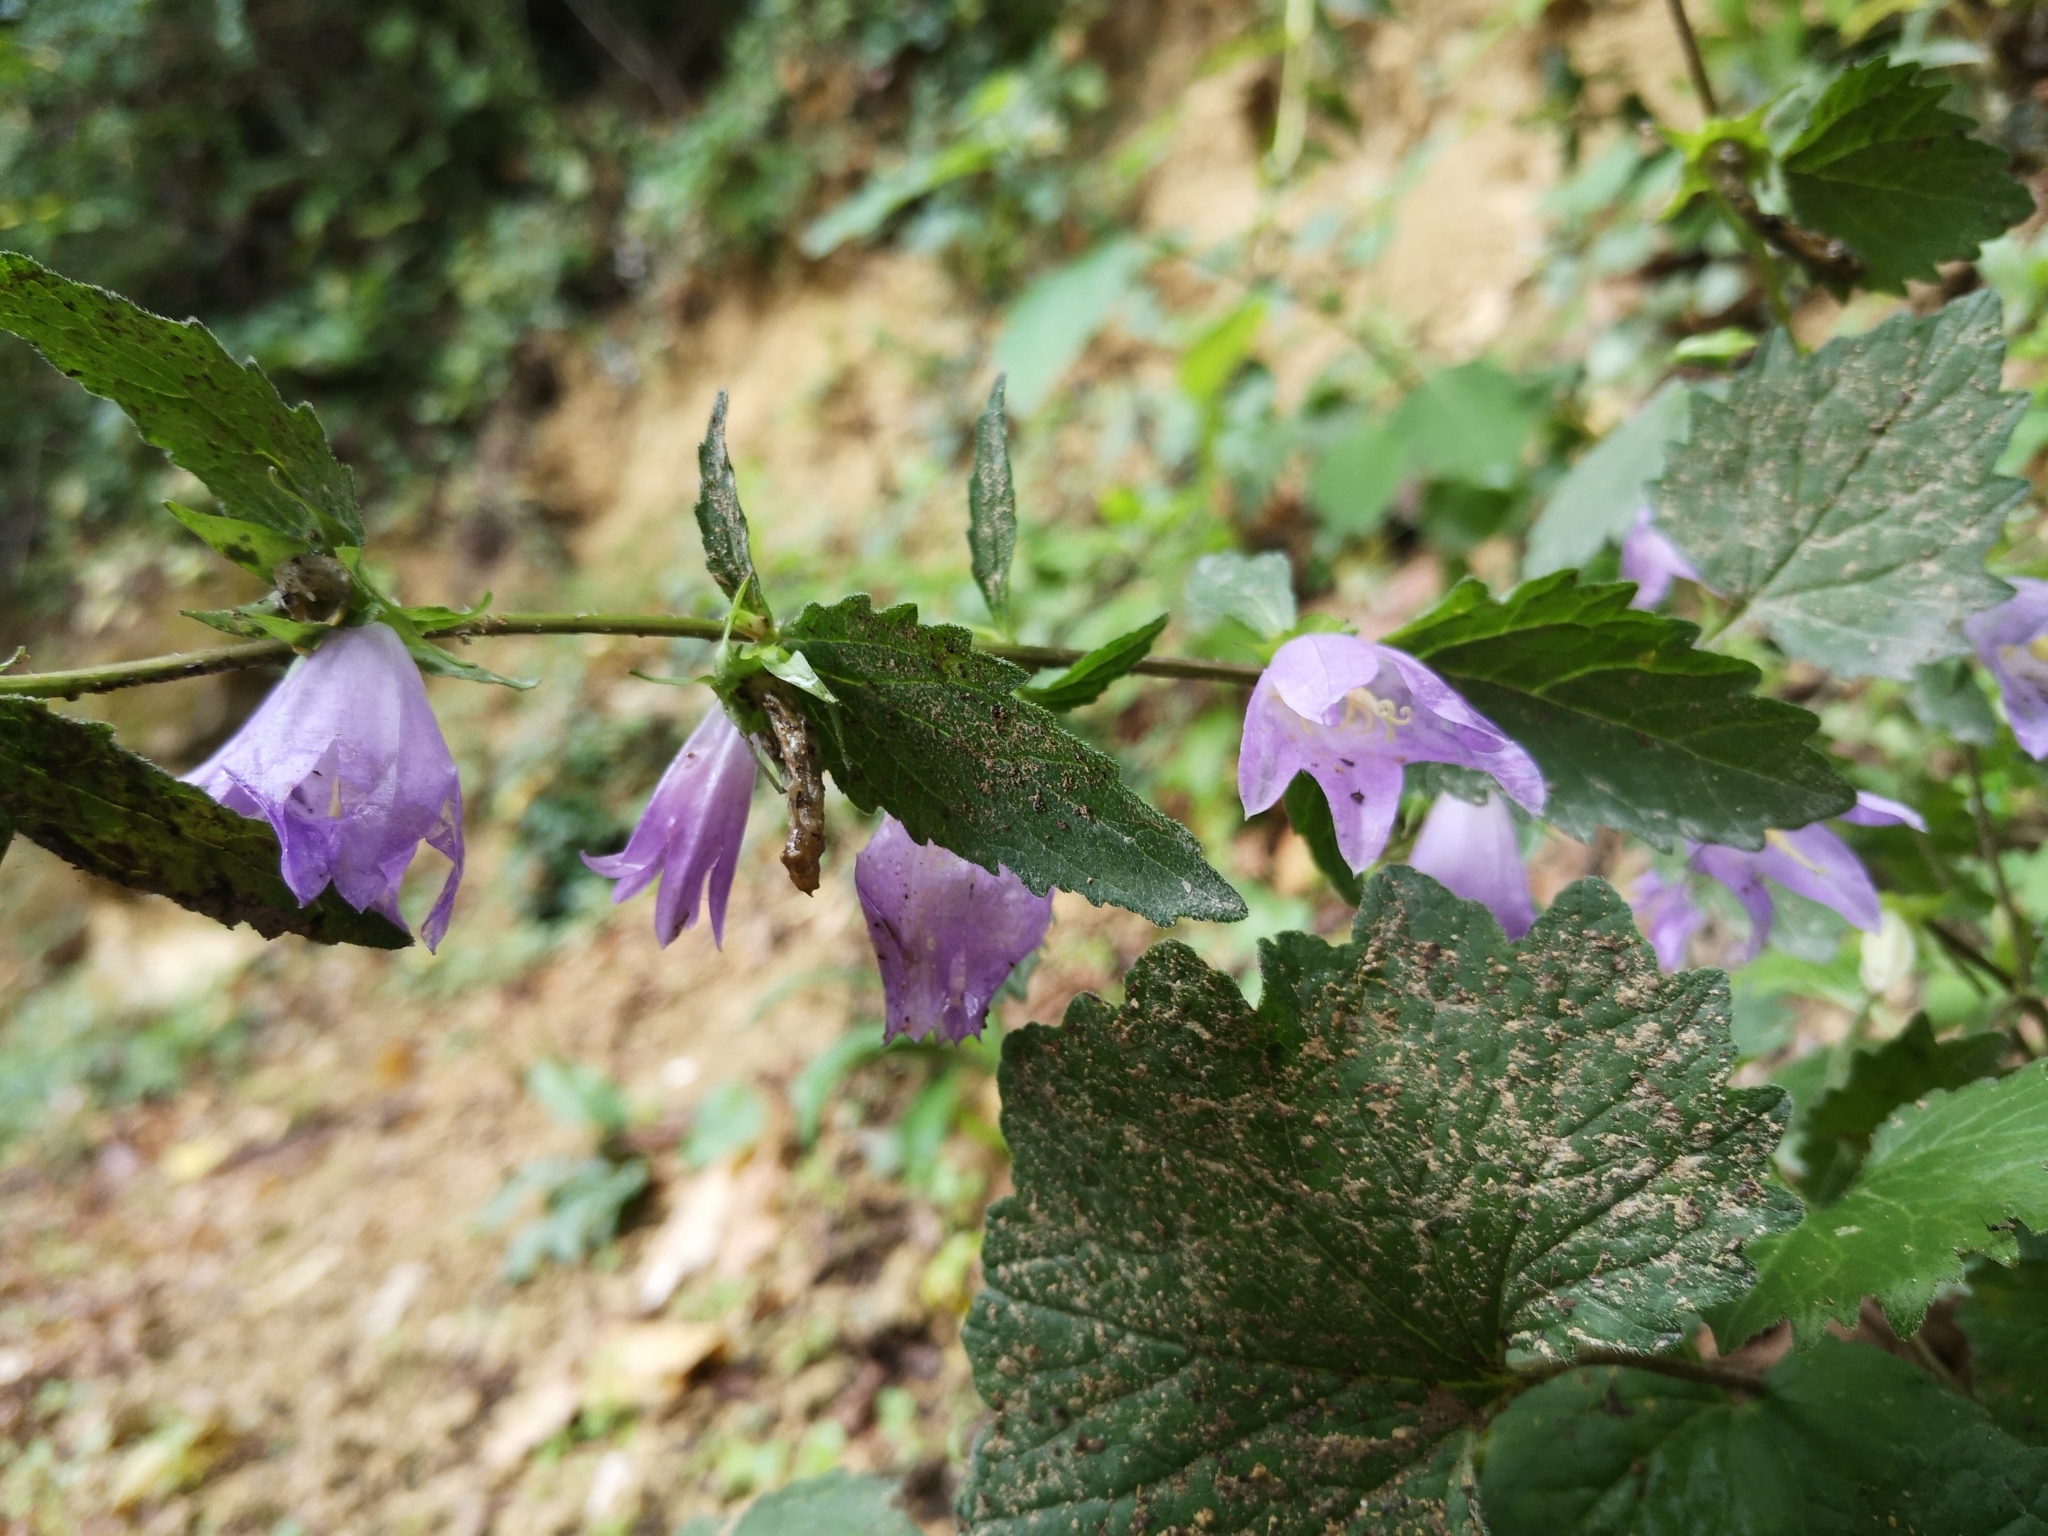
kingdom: Plantae
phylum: Tracheophyta
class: Magnoliopsida
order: Asterales
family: Campanulaceae
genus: Campanula
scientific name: Campanula trachelium
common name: Nettle-leaved bellflower
